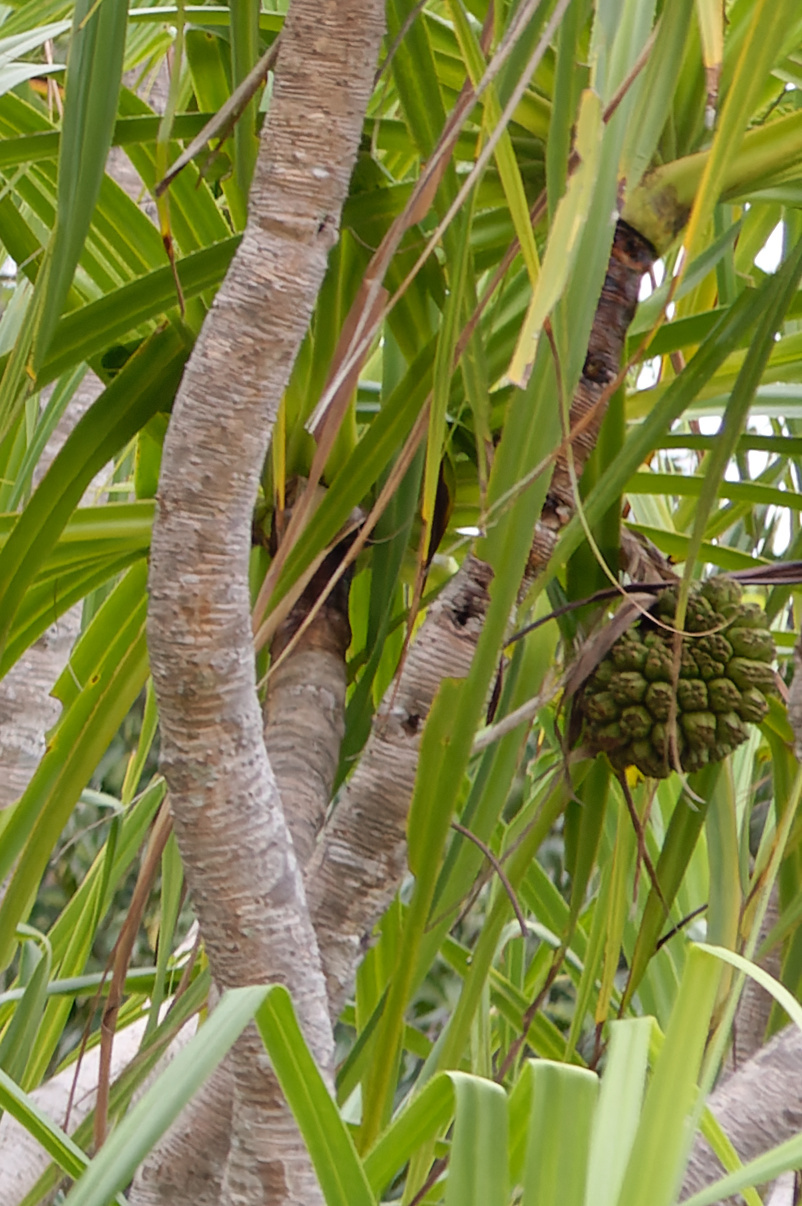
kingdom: Plantae
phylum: Tracheophyta
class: Liliopsida
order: Pandanales
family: Pandanaceae
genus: Pandanus
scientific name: Pandanus tectorius
